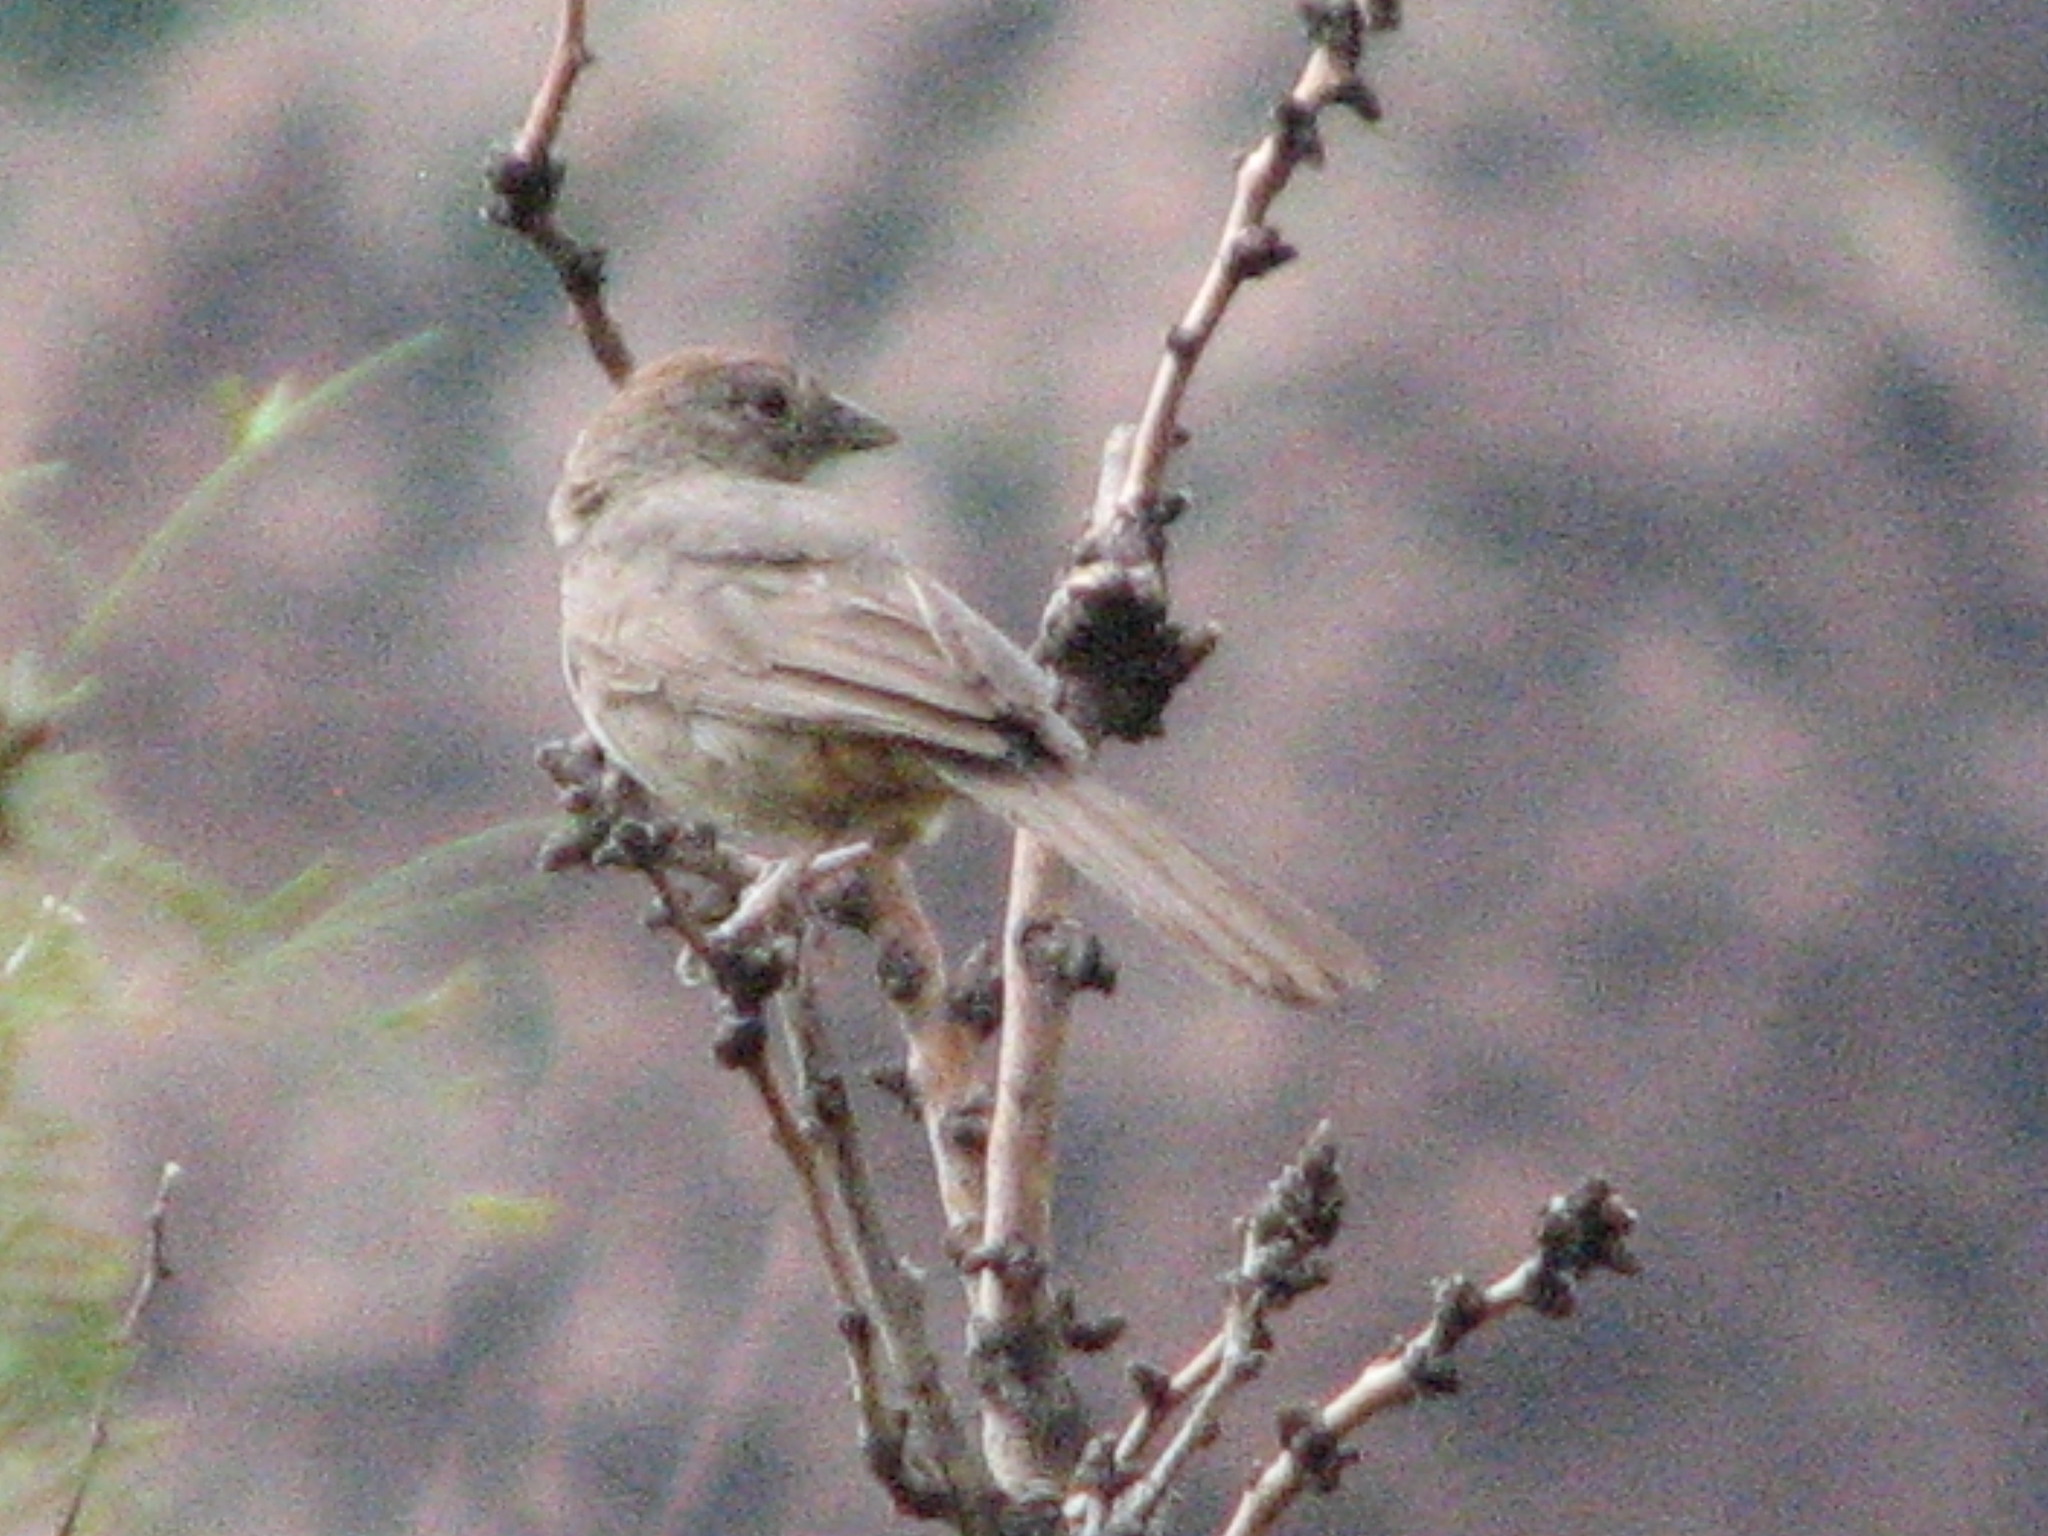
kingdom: Animalia
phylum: Chordata
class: Aves
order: Passeriformes
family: Passerellidae
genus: Melozone
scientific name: Melozone fusca
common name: Canyon towhee
